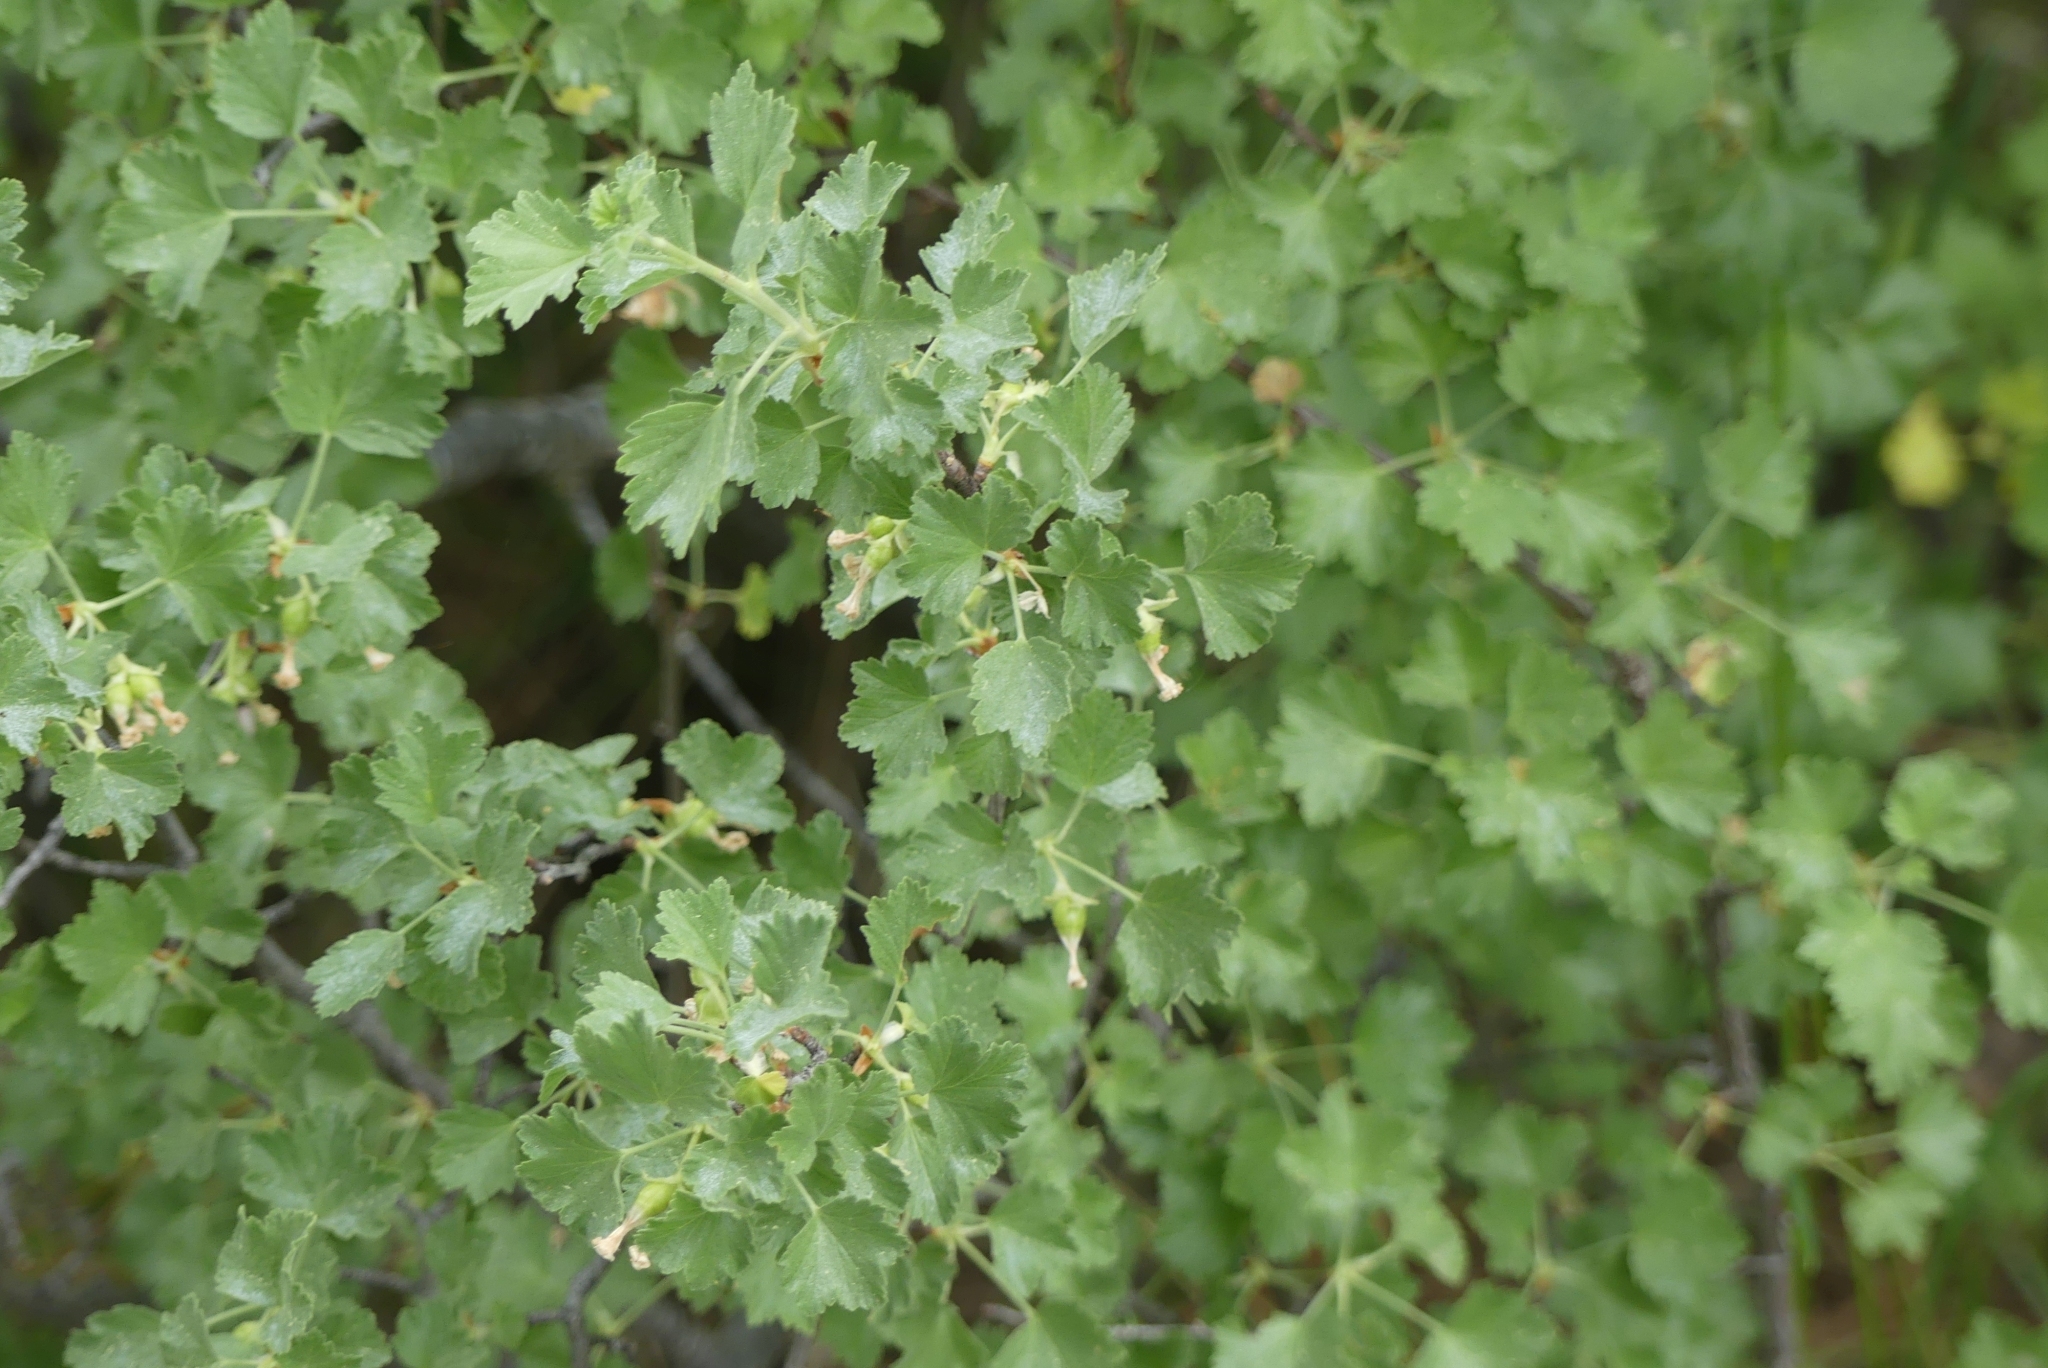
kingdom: Plantae
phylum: Tracheophyta
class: Magnoliopsida
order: Saxifragales
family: Grossulariaceae
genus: Ribes
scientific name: Ribes cereum
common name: Wax currant
